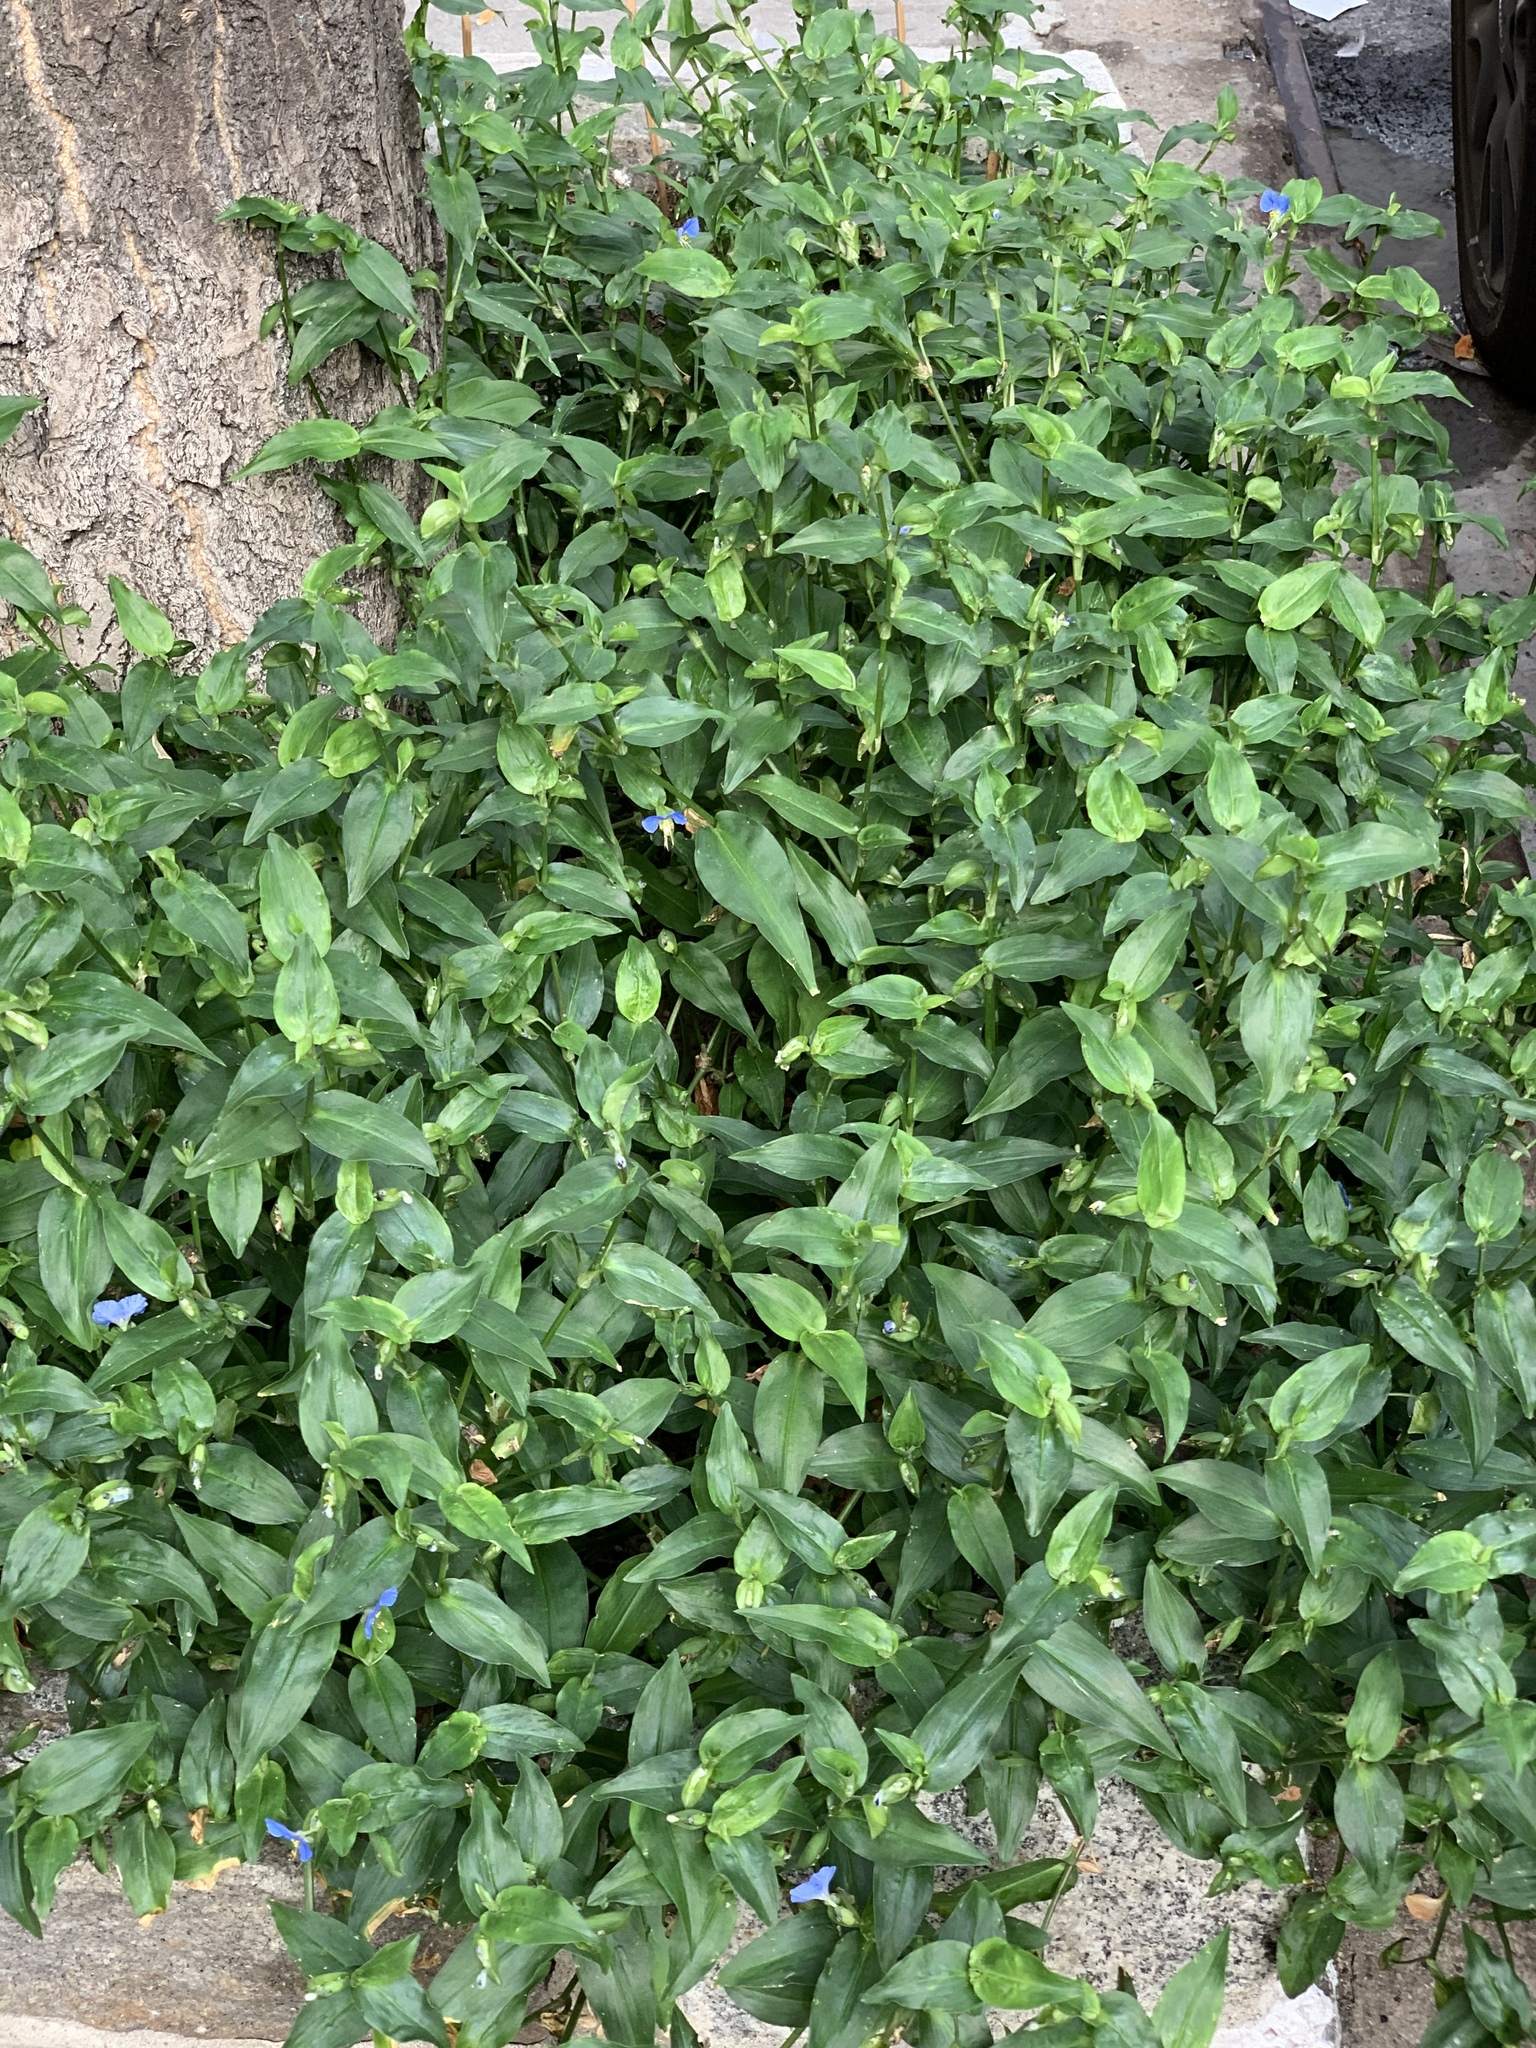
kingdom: Plantae
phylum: Tracheophyta
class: Liliopsida
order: Commelinales
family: Commelinaceae
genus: Commelina
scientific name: Commelina communis
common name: Asiatic dayflower
